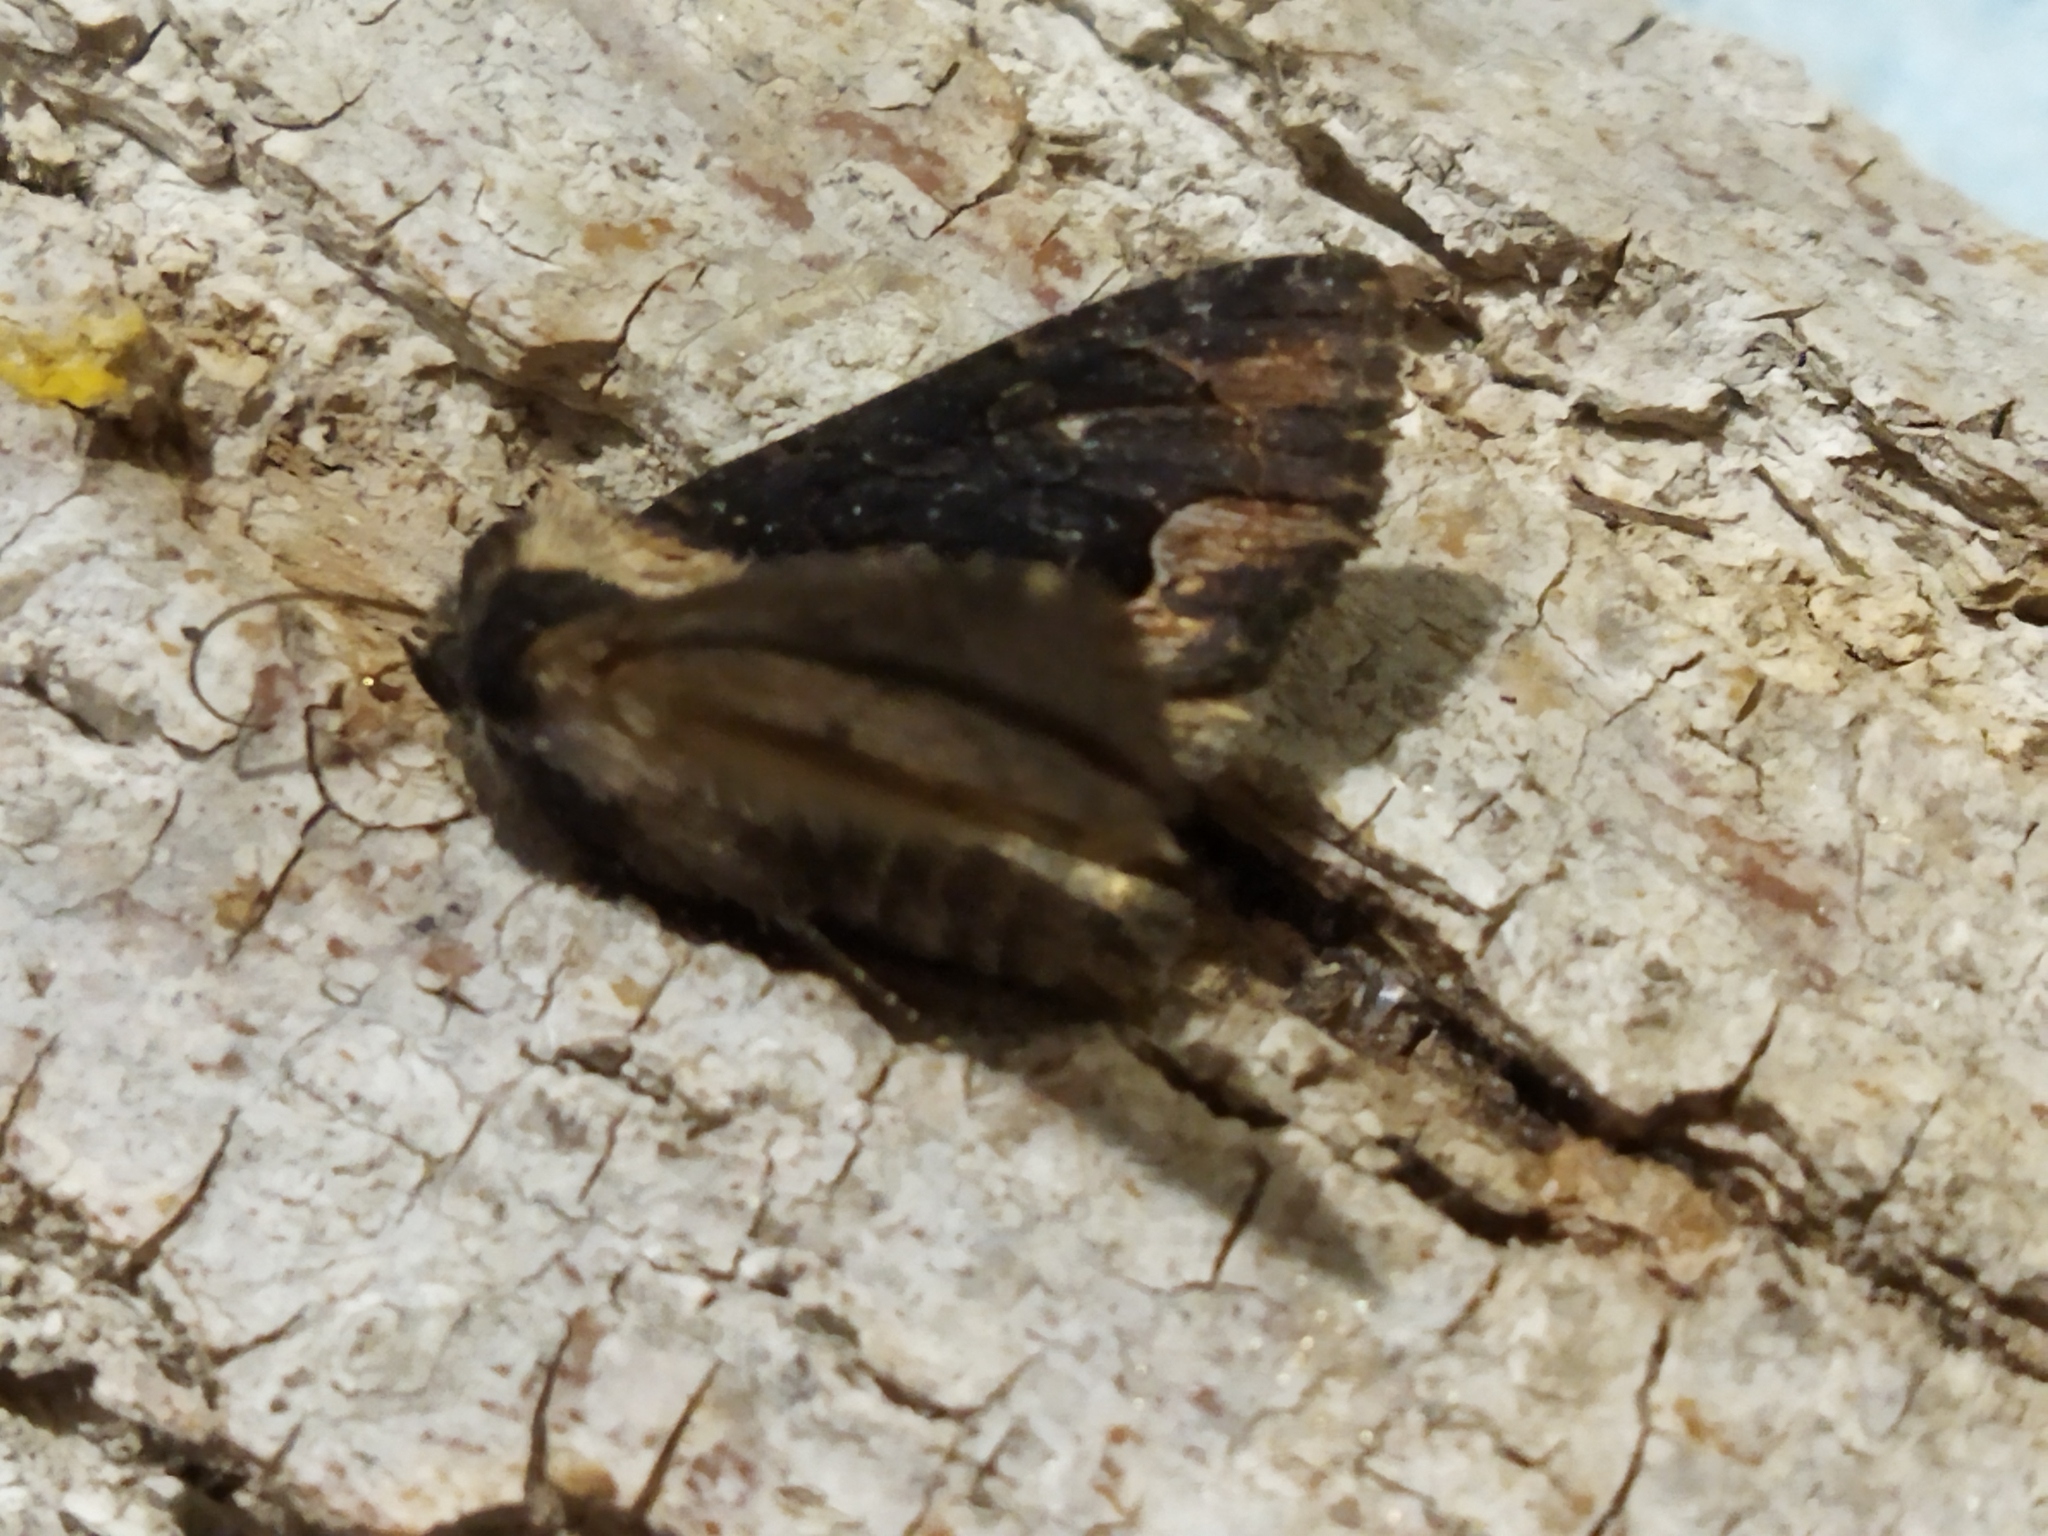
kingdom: Animalia
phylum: Arthropoda
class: Insecta
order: Lepidoptera
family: Noctuidae
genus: Dypterygia
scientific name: Dypterygia scabriuscula
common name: Bird's wing
